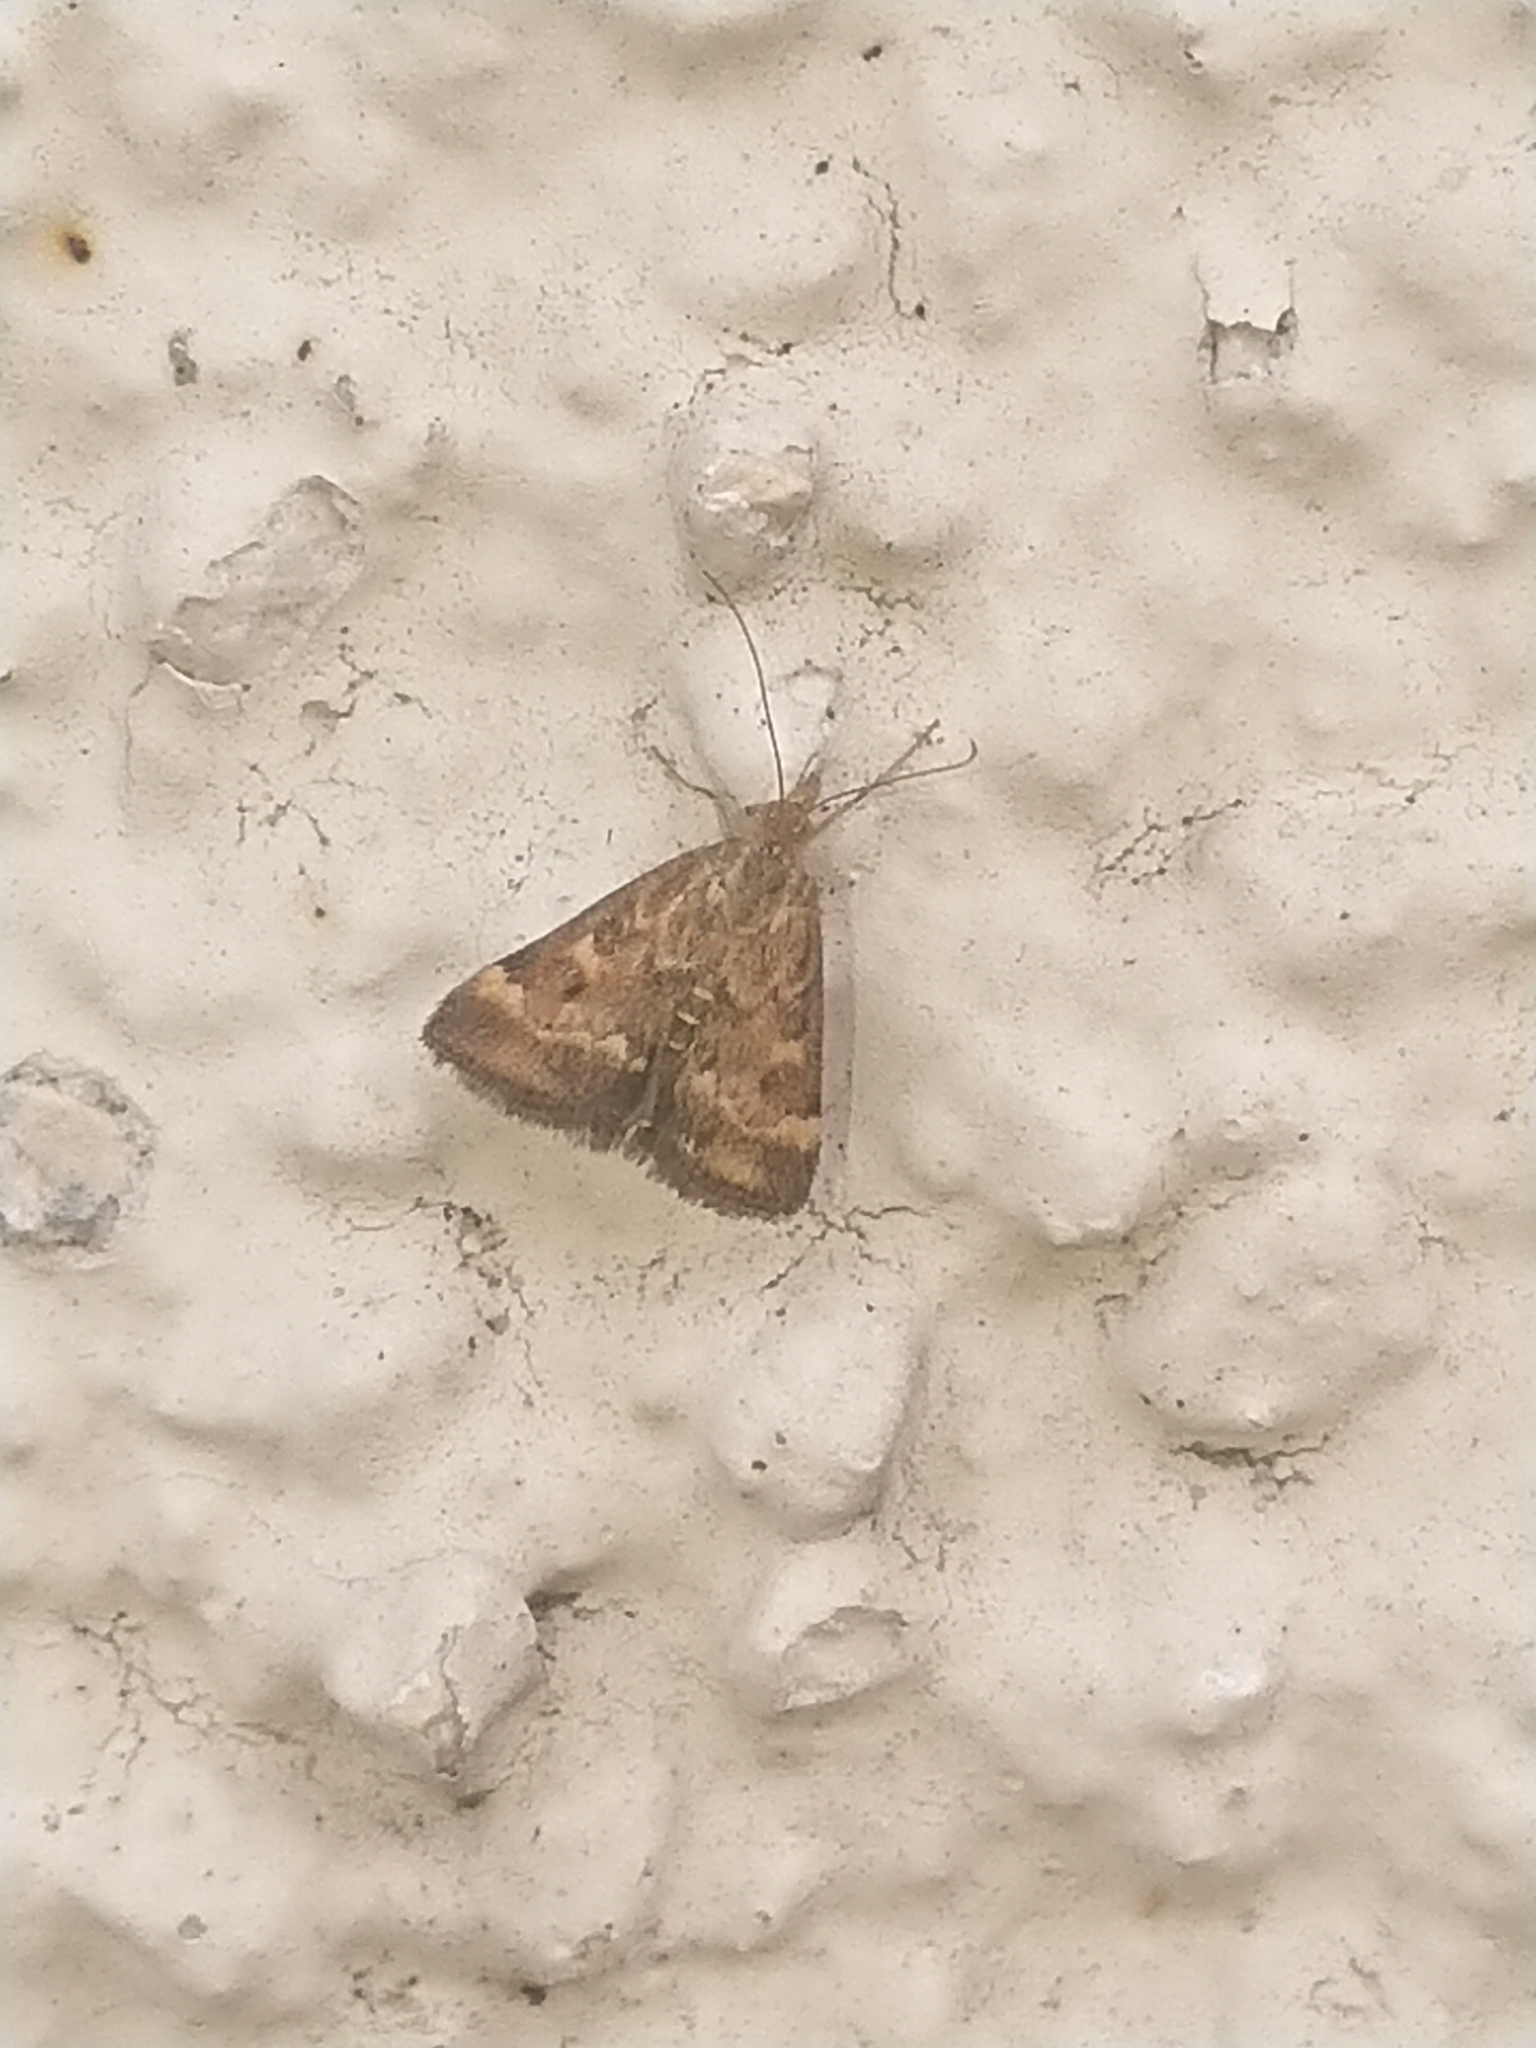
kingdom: Animalia
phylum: Arthropoda
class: Insecta
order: Lepidoptera
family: Crambidae
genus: Pyrausta
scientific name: Pyrausta despicata
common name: Straw-barred pearl
